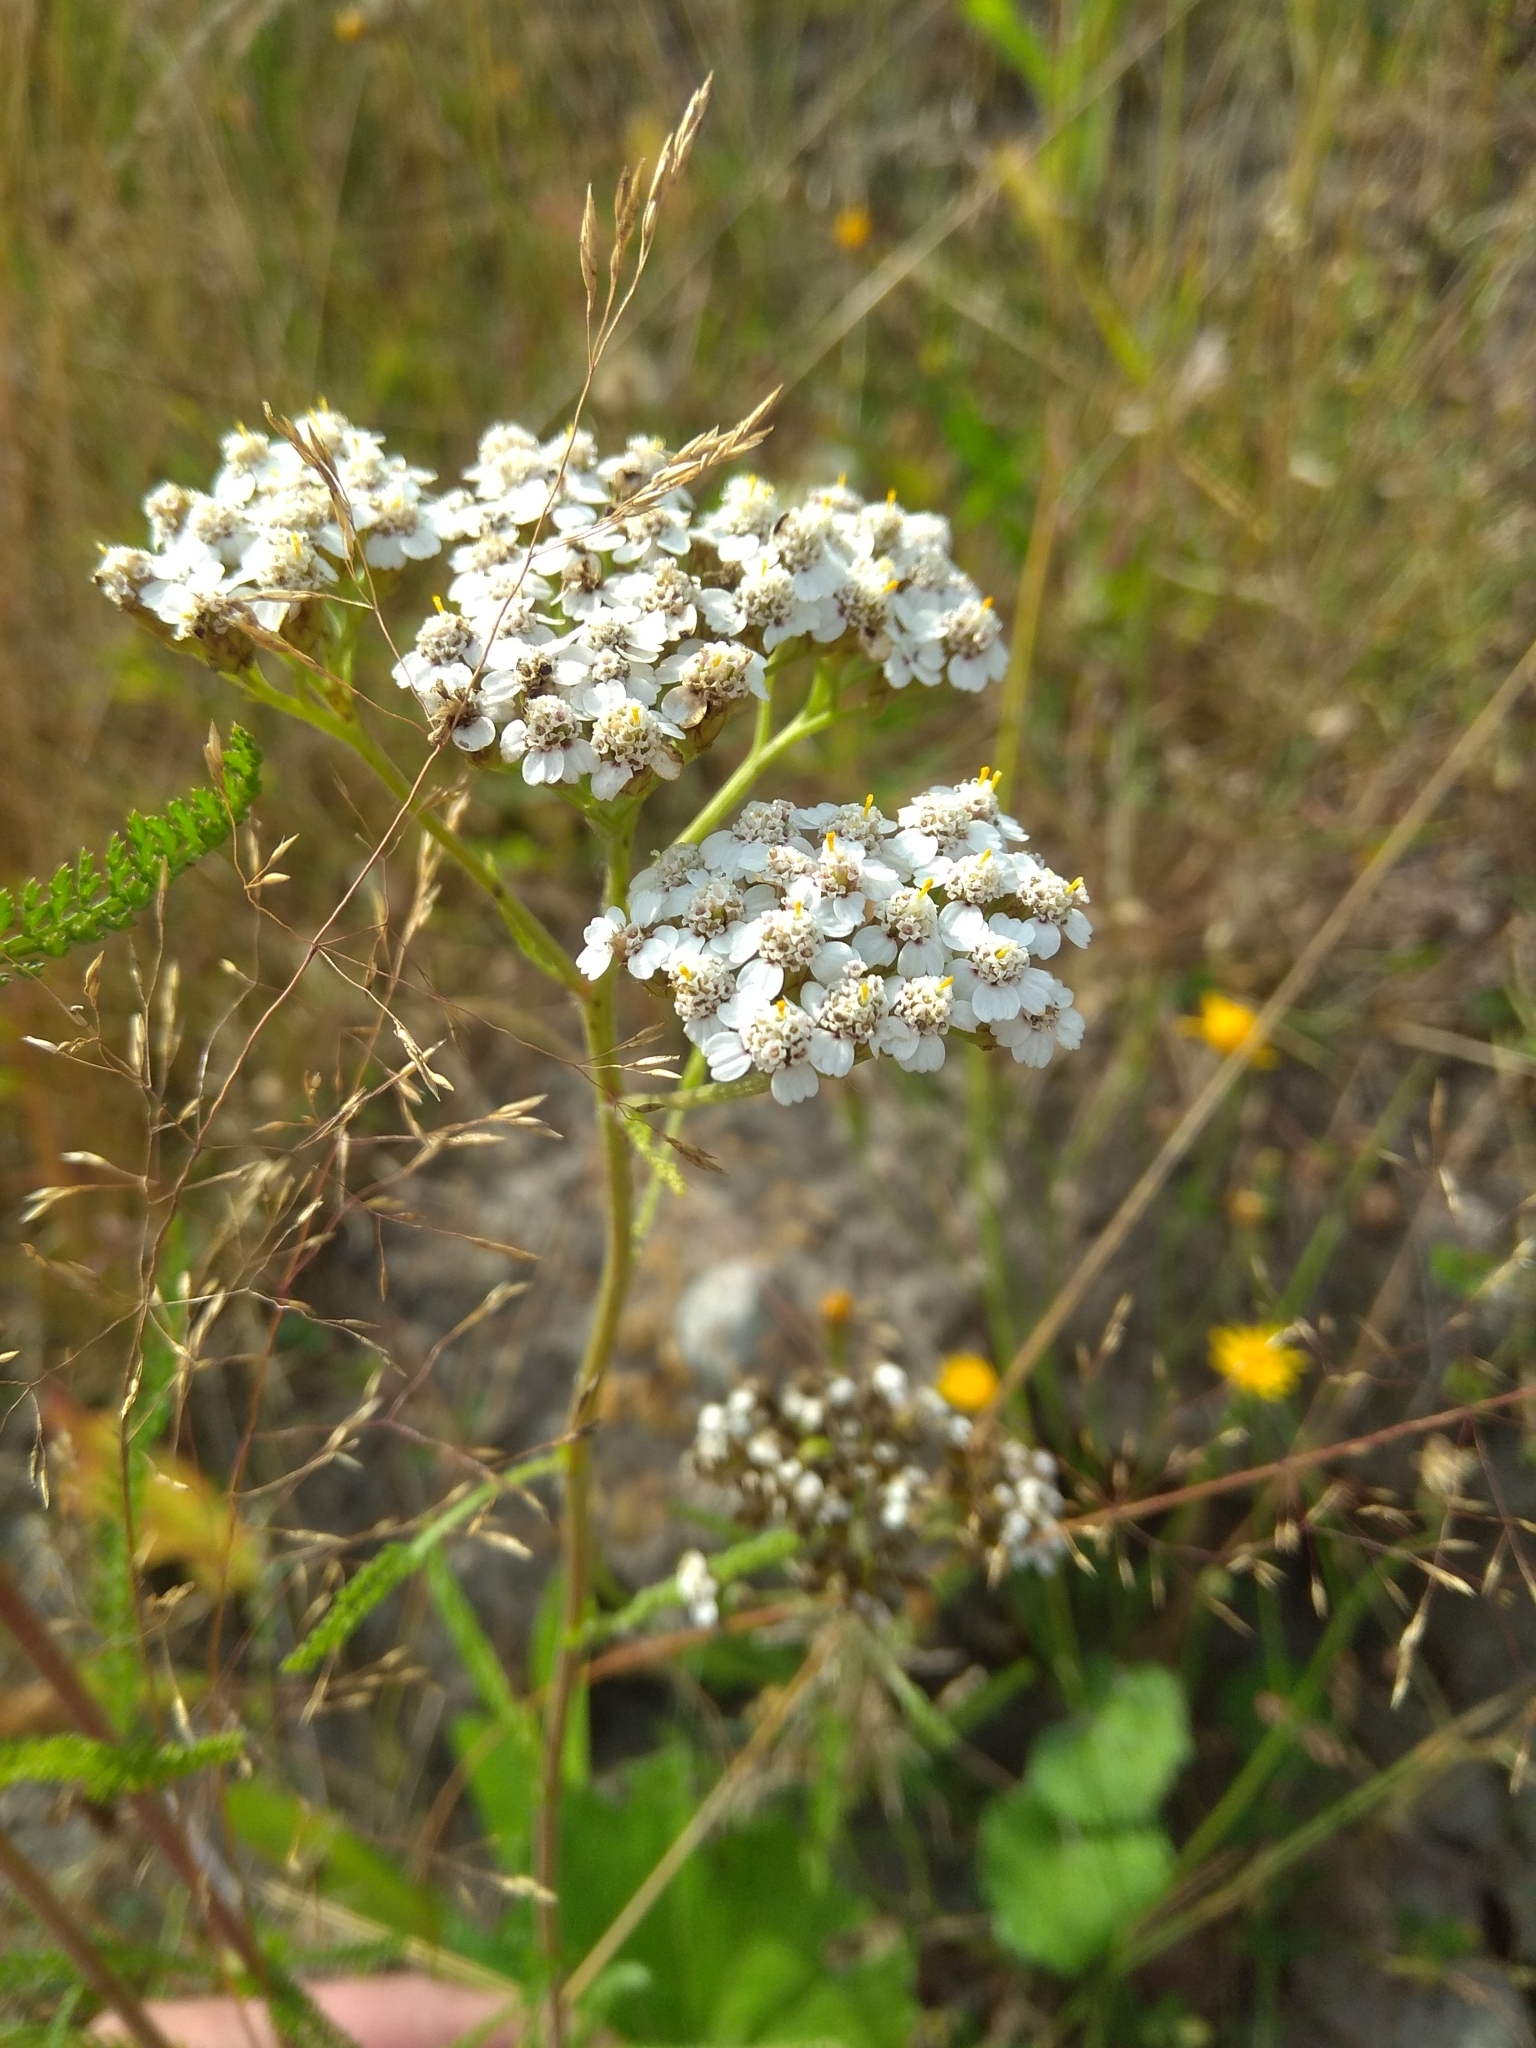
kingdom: Plantae
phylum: Tracheophyta
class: Magnoliopsida
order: Asterales
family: Asteraceae
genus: Achillea
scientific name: Achillea millefolium
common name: Yarrow
